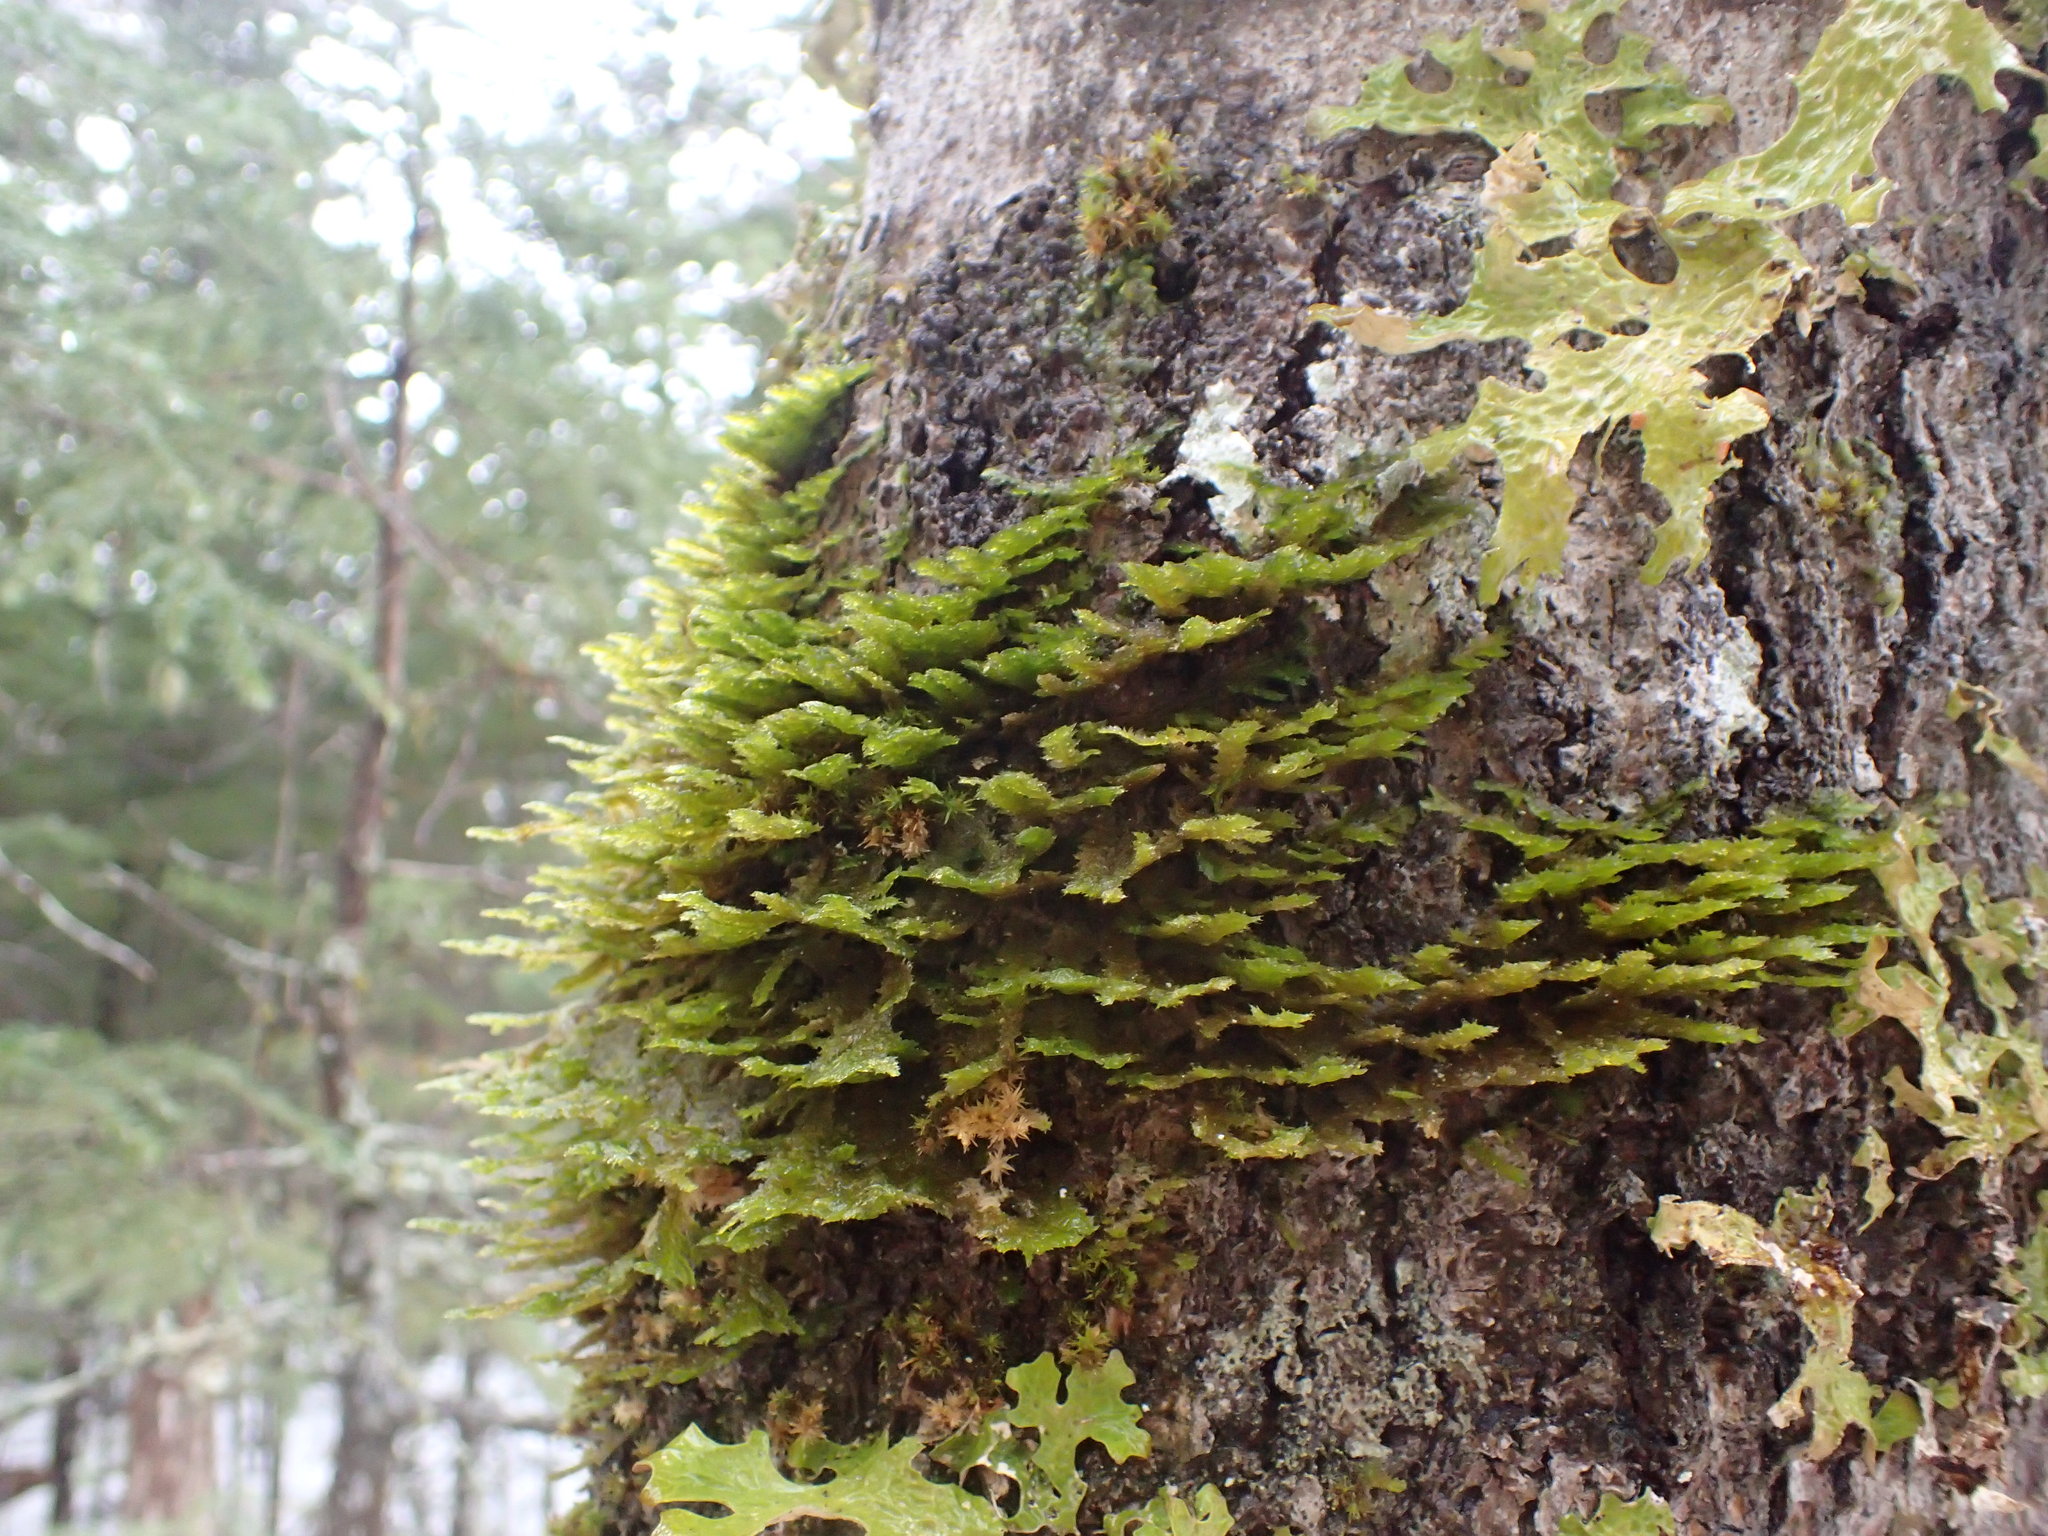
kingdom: Plantae
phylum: Bryophyta
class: Bryopsida
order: Hypnales
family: Neckeraceae
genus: Neckera
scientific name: Neckera pennata
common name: Feathery neckera
